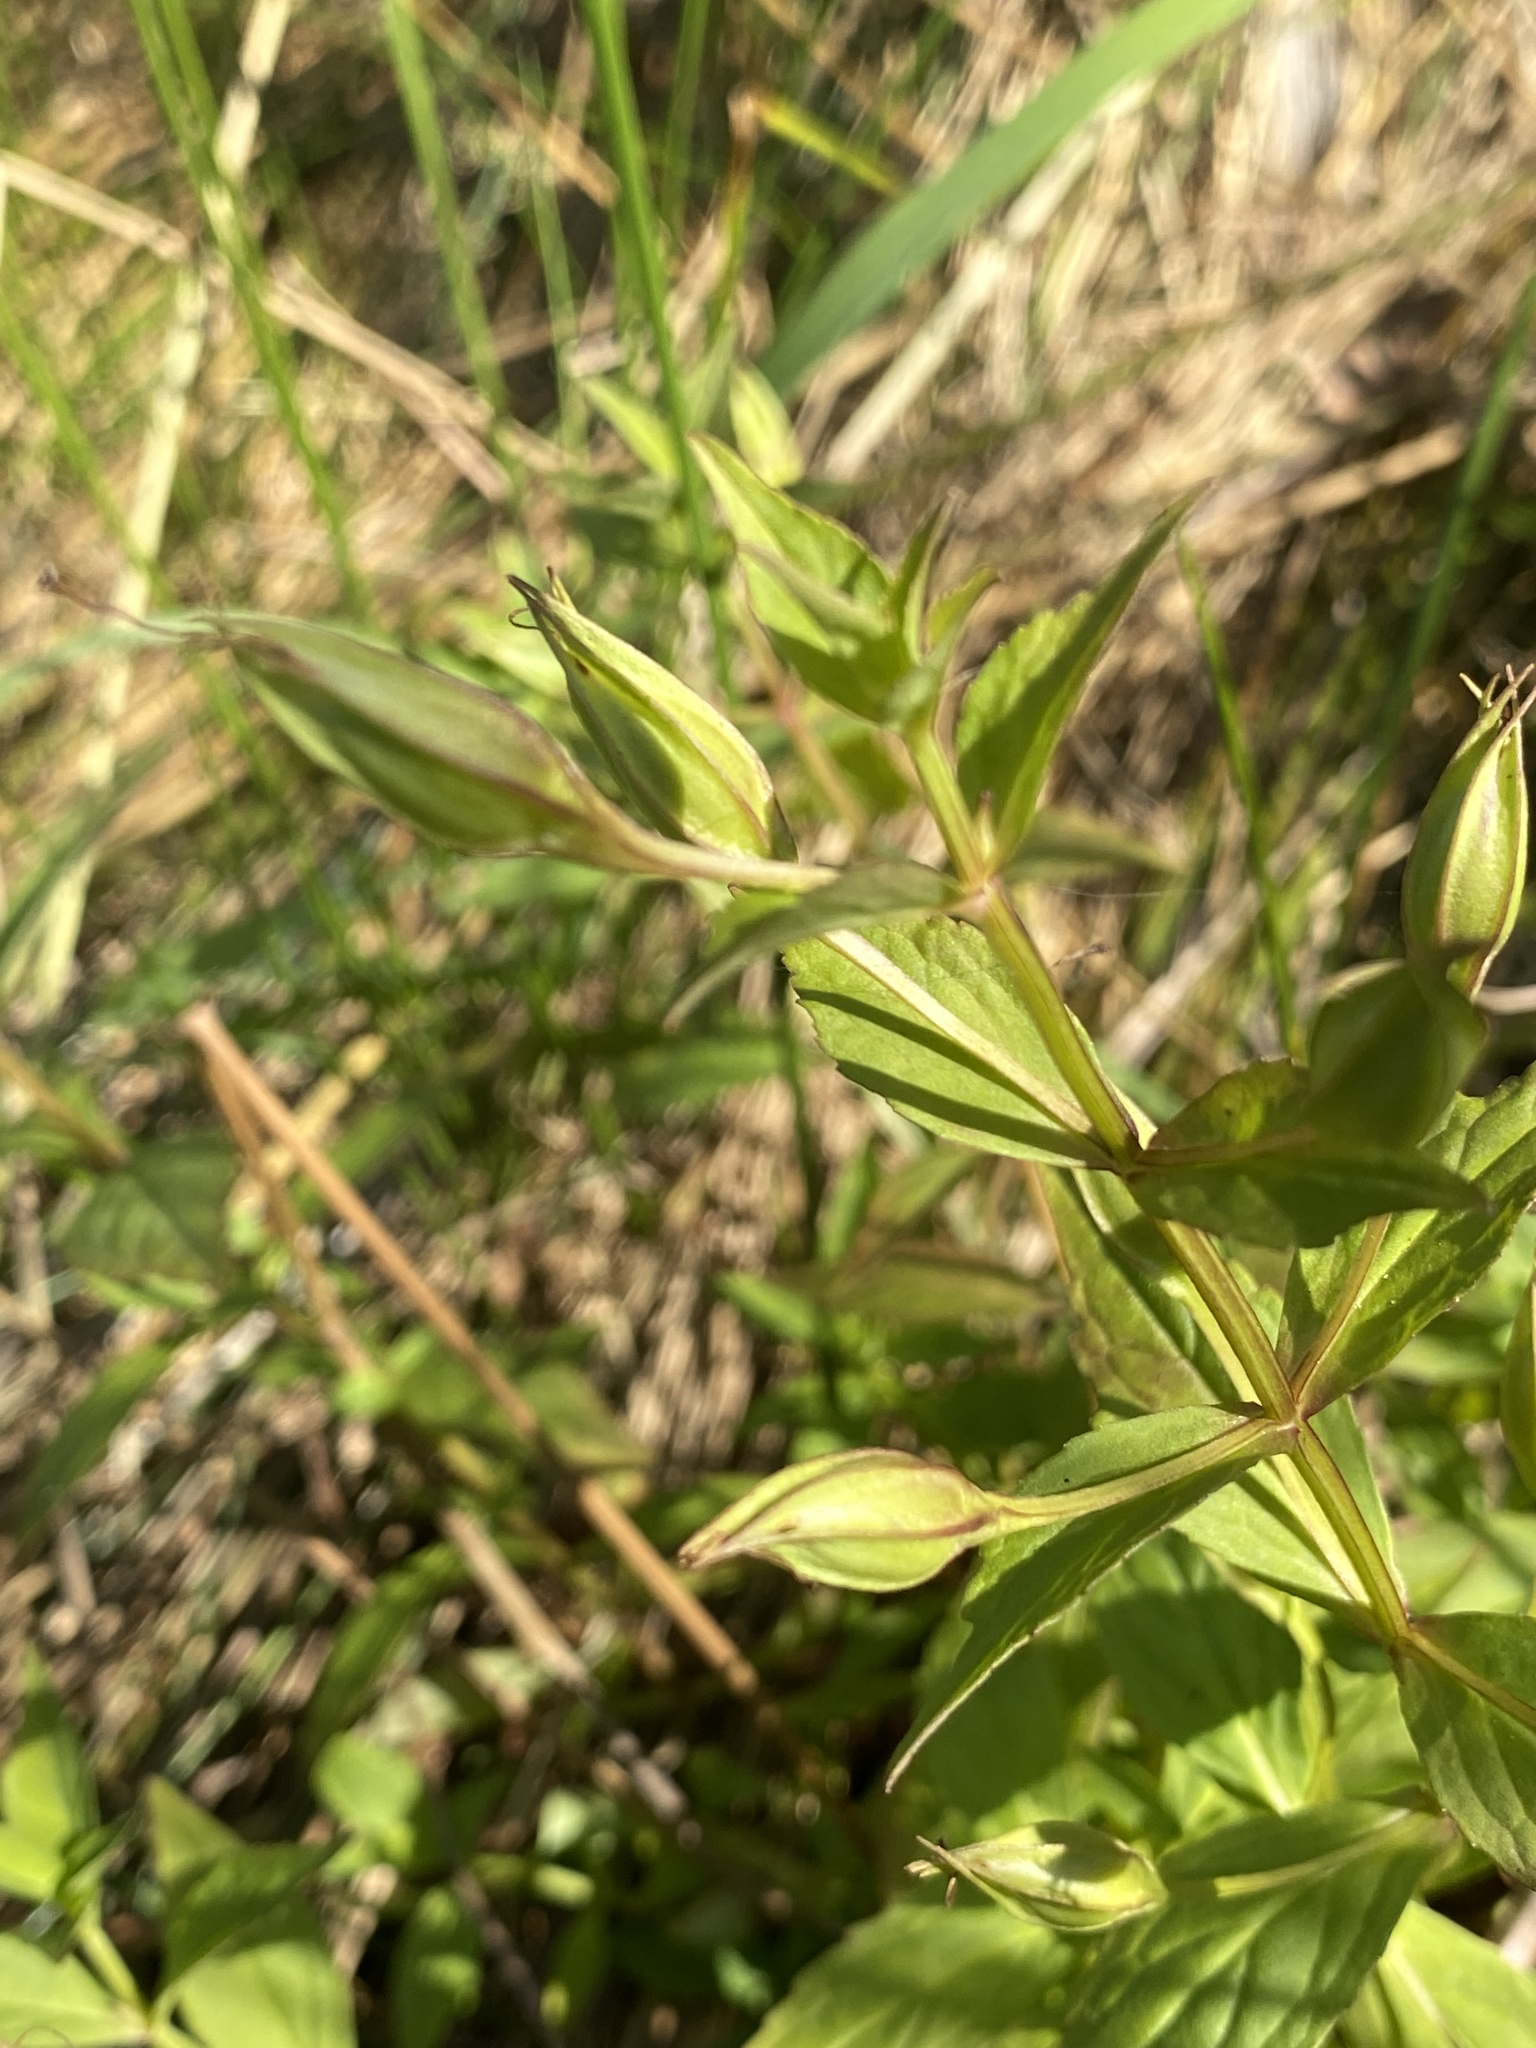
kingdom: Plantae
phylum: Tracheophyta
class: Magnoliopsida
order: Lamiales
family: Phrymaceae
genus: Mimulus
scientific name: Mimulus ringens
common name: Allegheny monkeyflower
